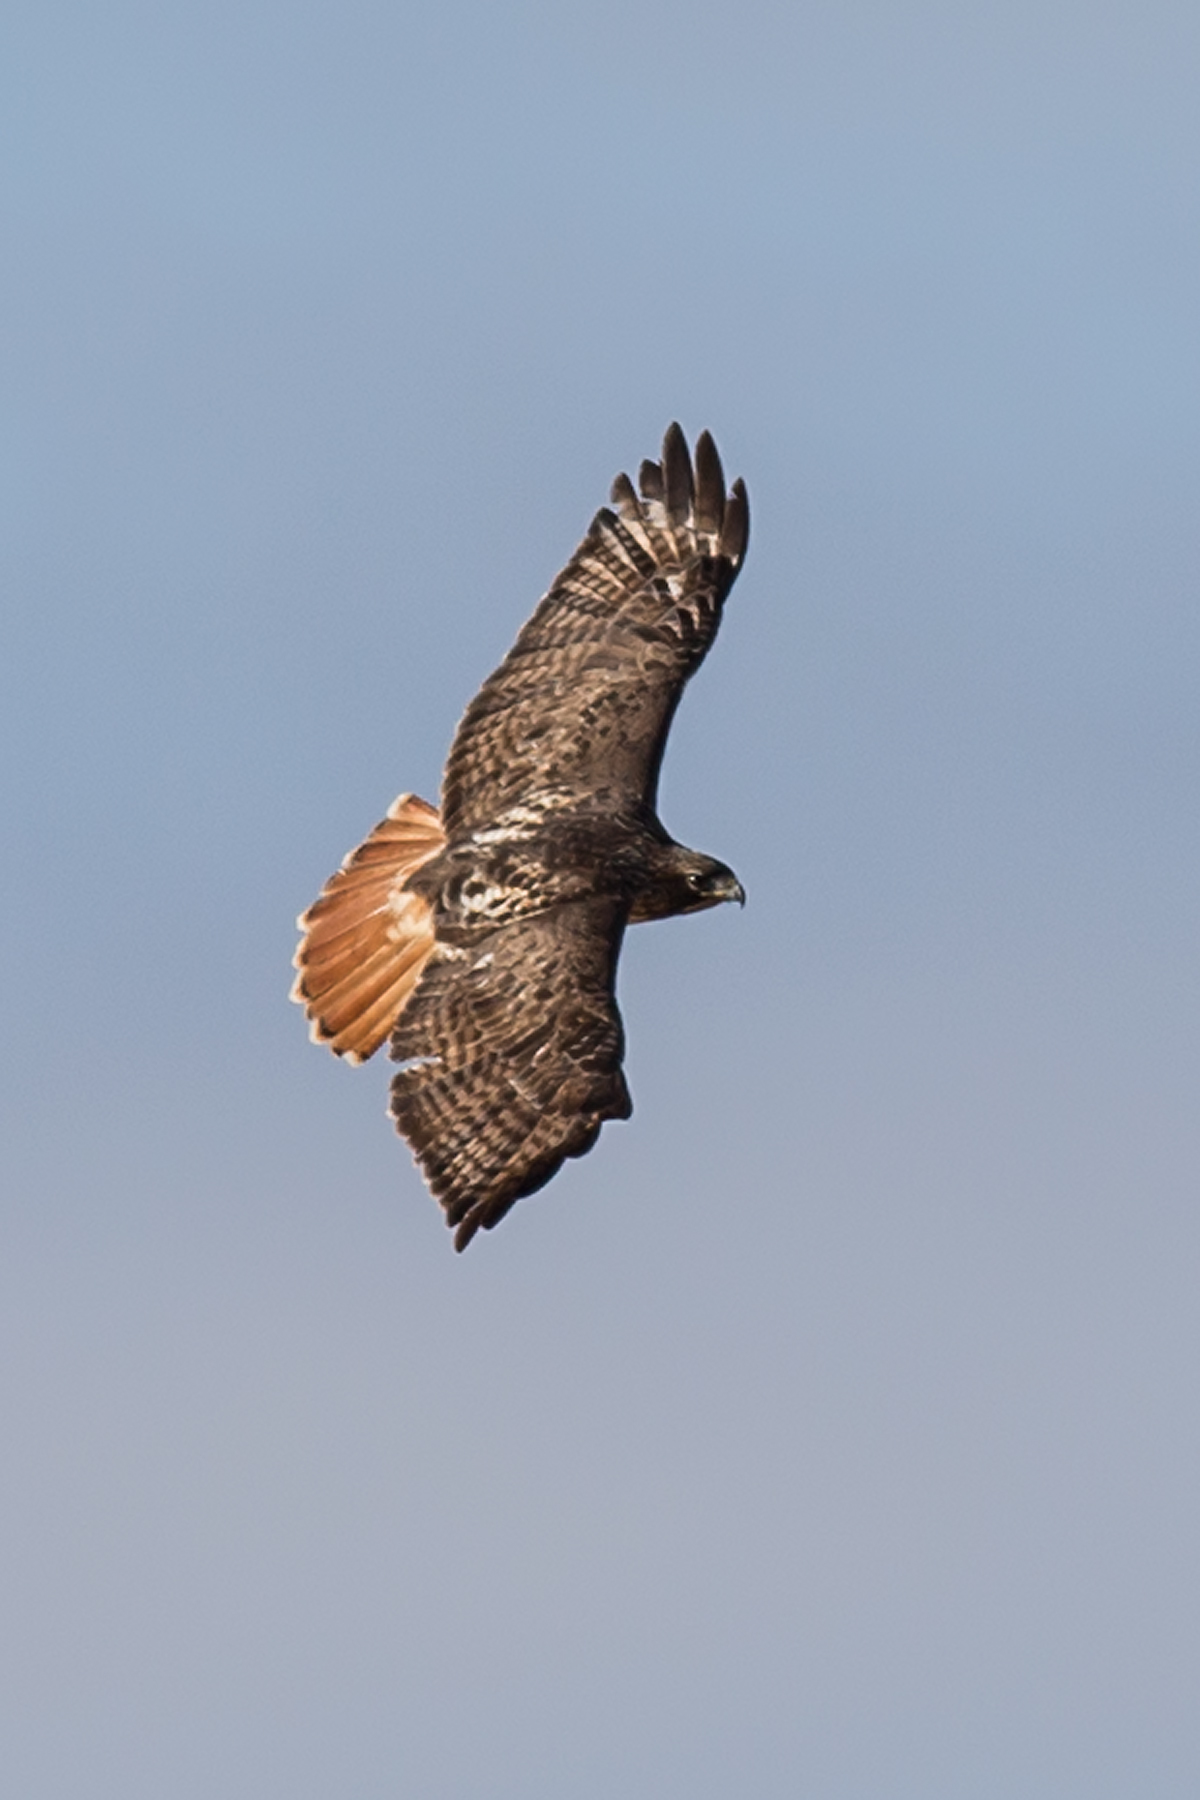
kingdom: Animalia
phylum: Chordata
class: Aves
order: Accipitriformes
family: Accipitridae
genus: Buteo
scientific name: Buteo jamaicensis
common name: Red-tailed hawk
